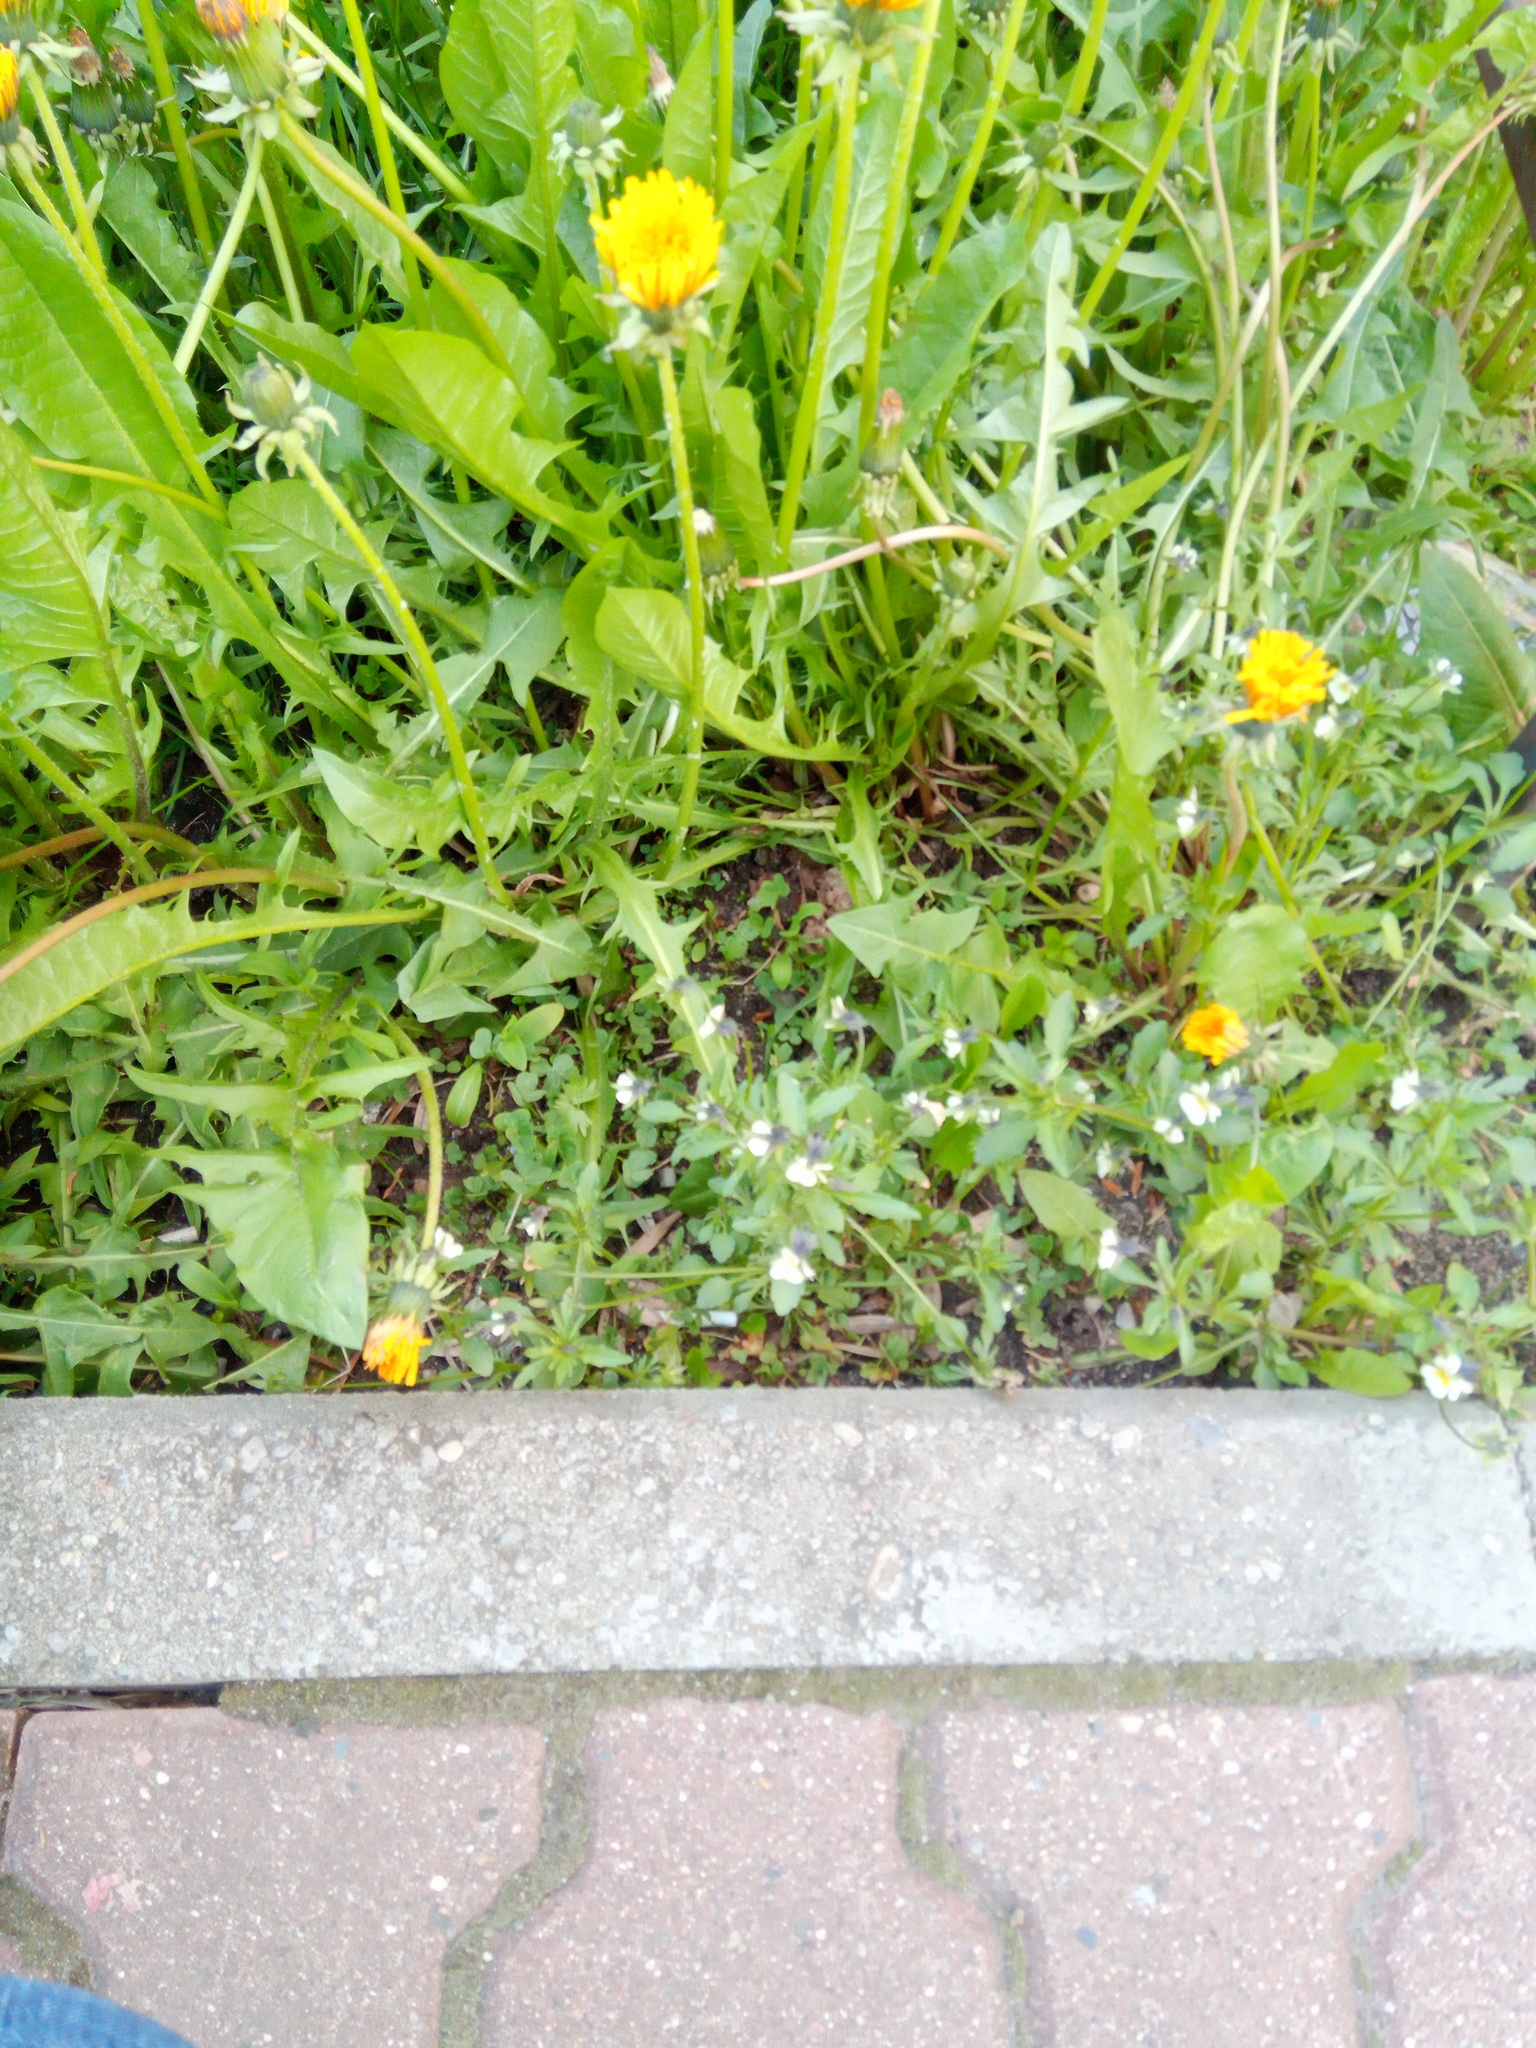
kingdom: Plantae
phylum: Tracheophyta
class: Magnoliopsida
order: Malpighiales
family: Violaceae
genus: Viola
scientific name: Viola arvensis
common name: Field pansy
